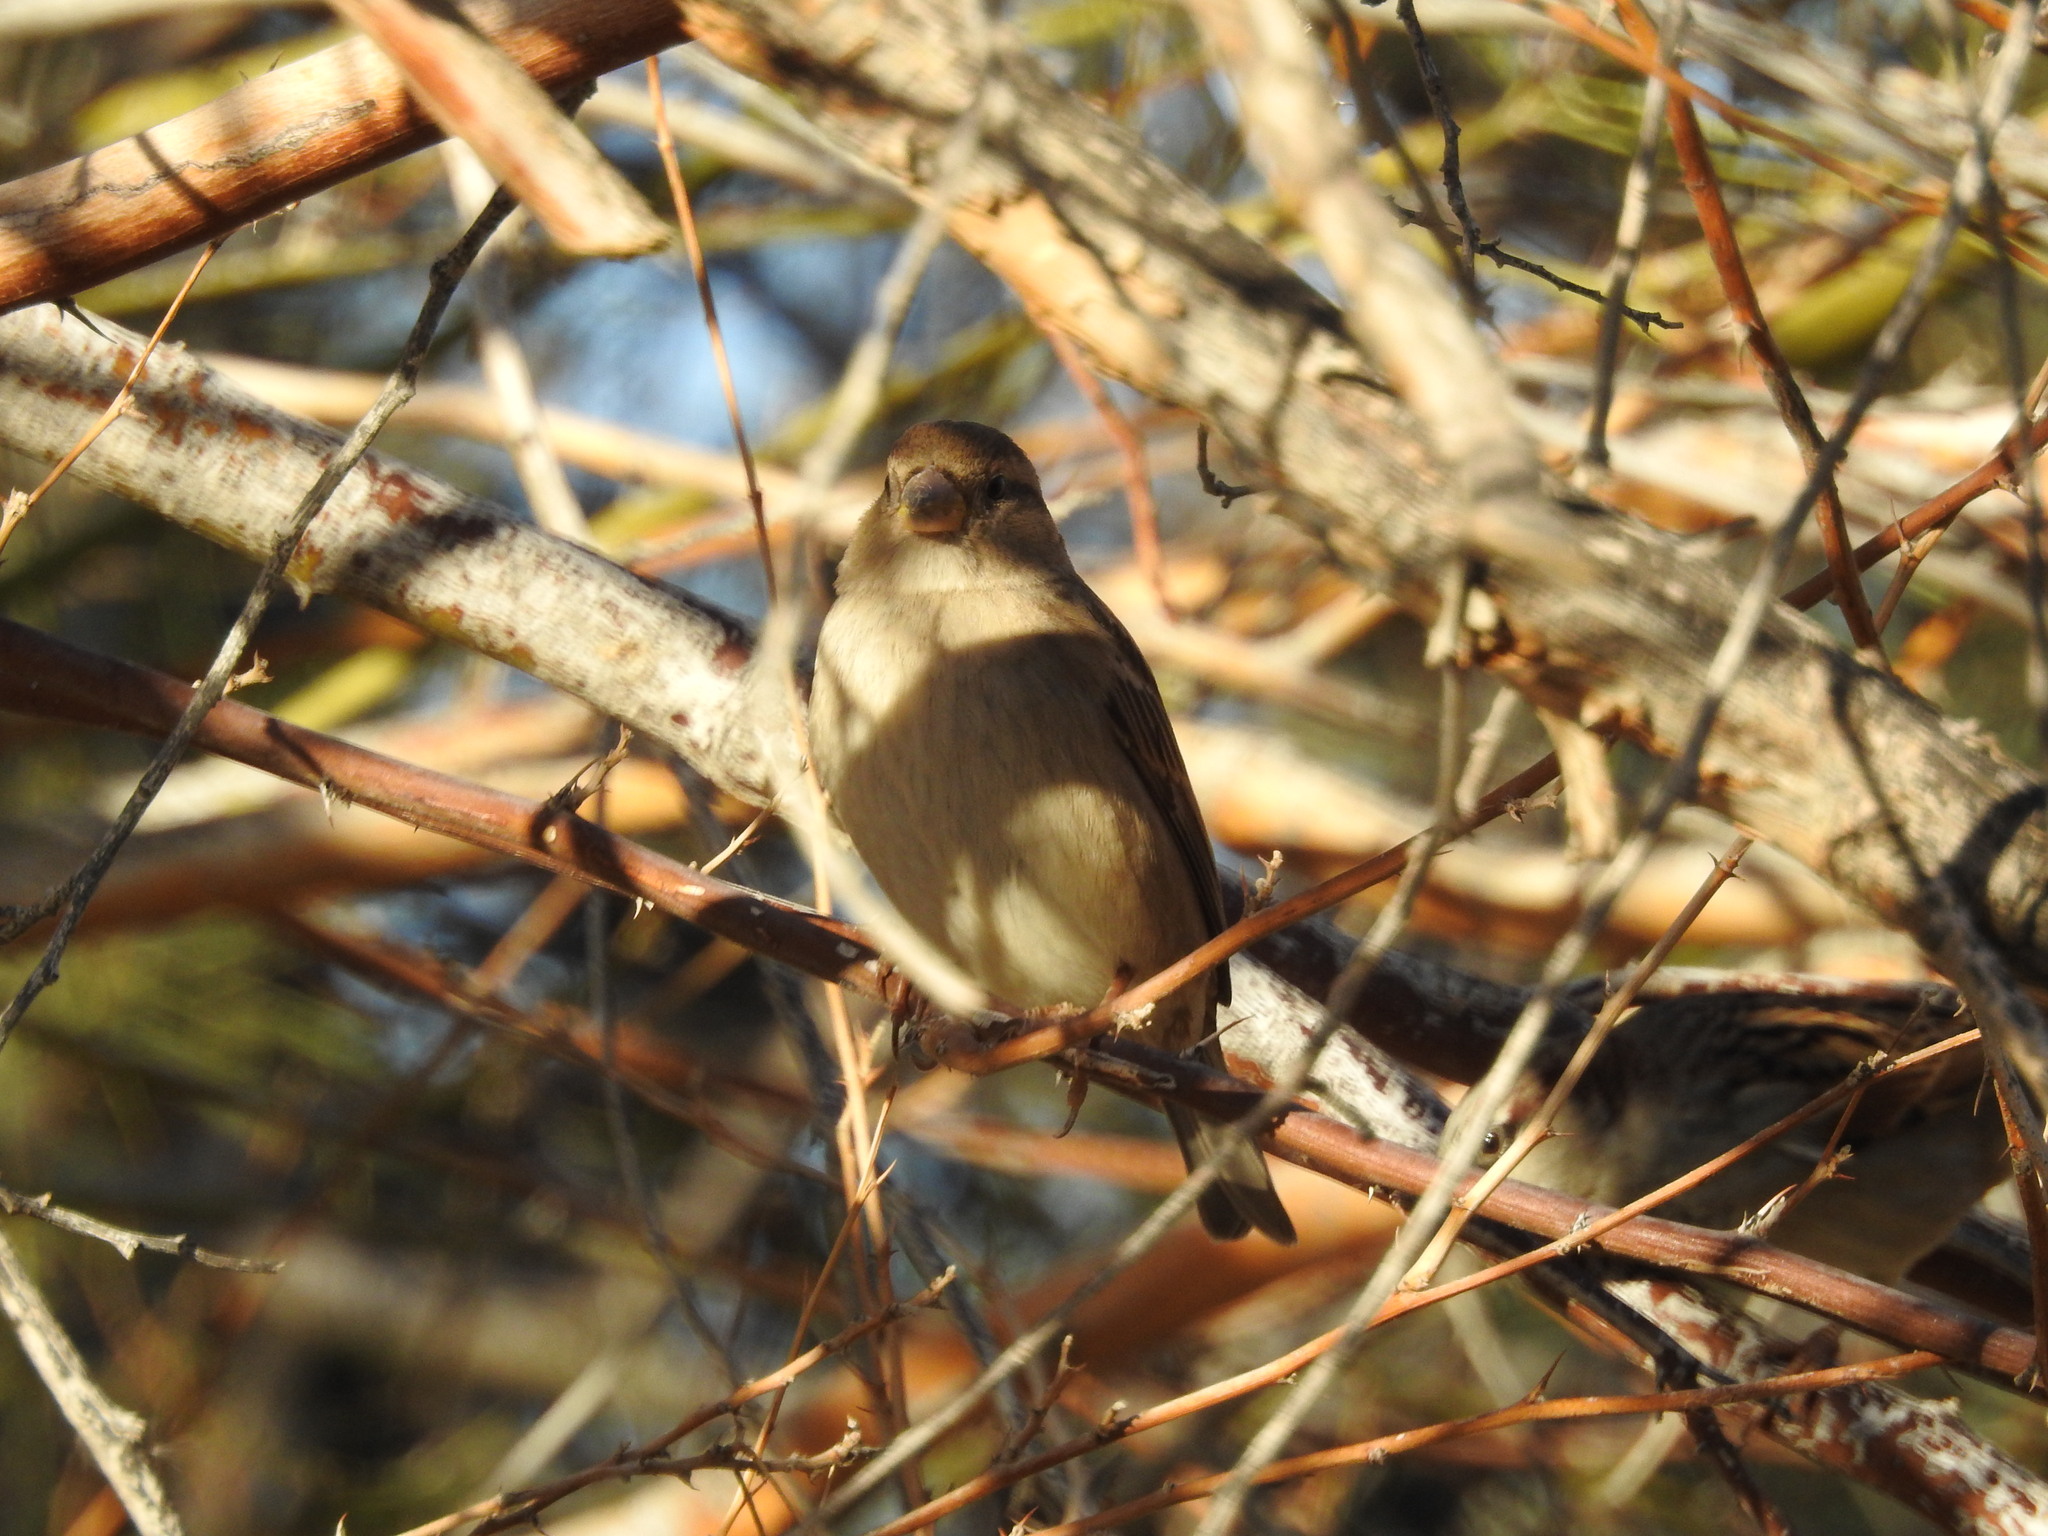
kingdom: Animalia
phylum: Chordata
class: Aves
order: Passeriformes
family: Passeridae
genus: Passer
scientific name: Passer domesticus
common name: House sparrow
